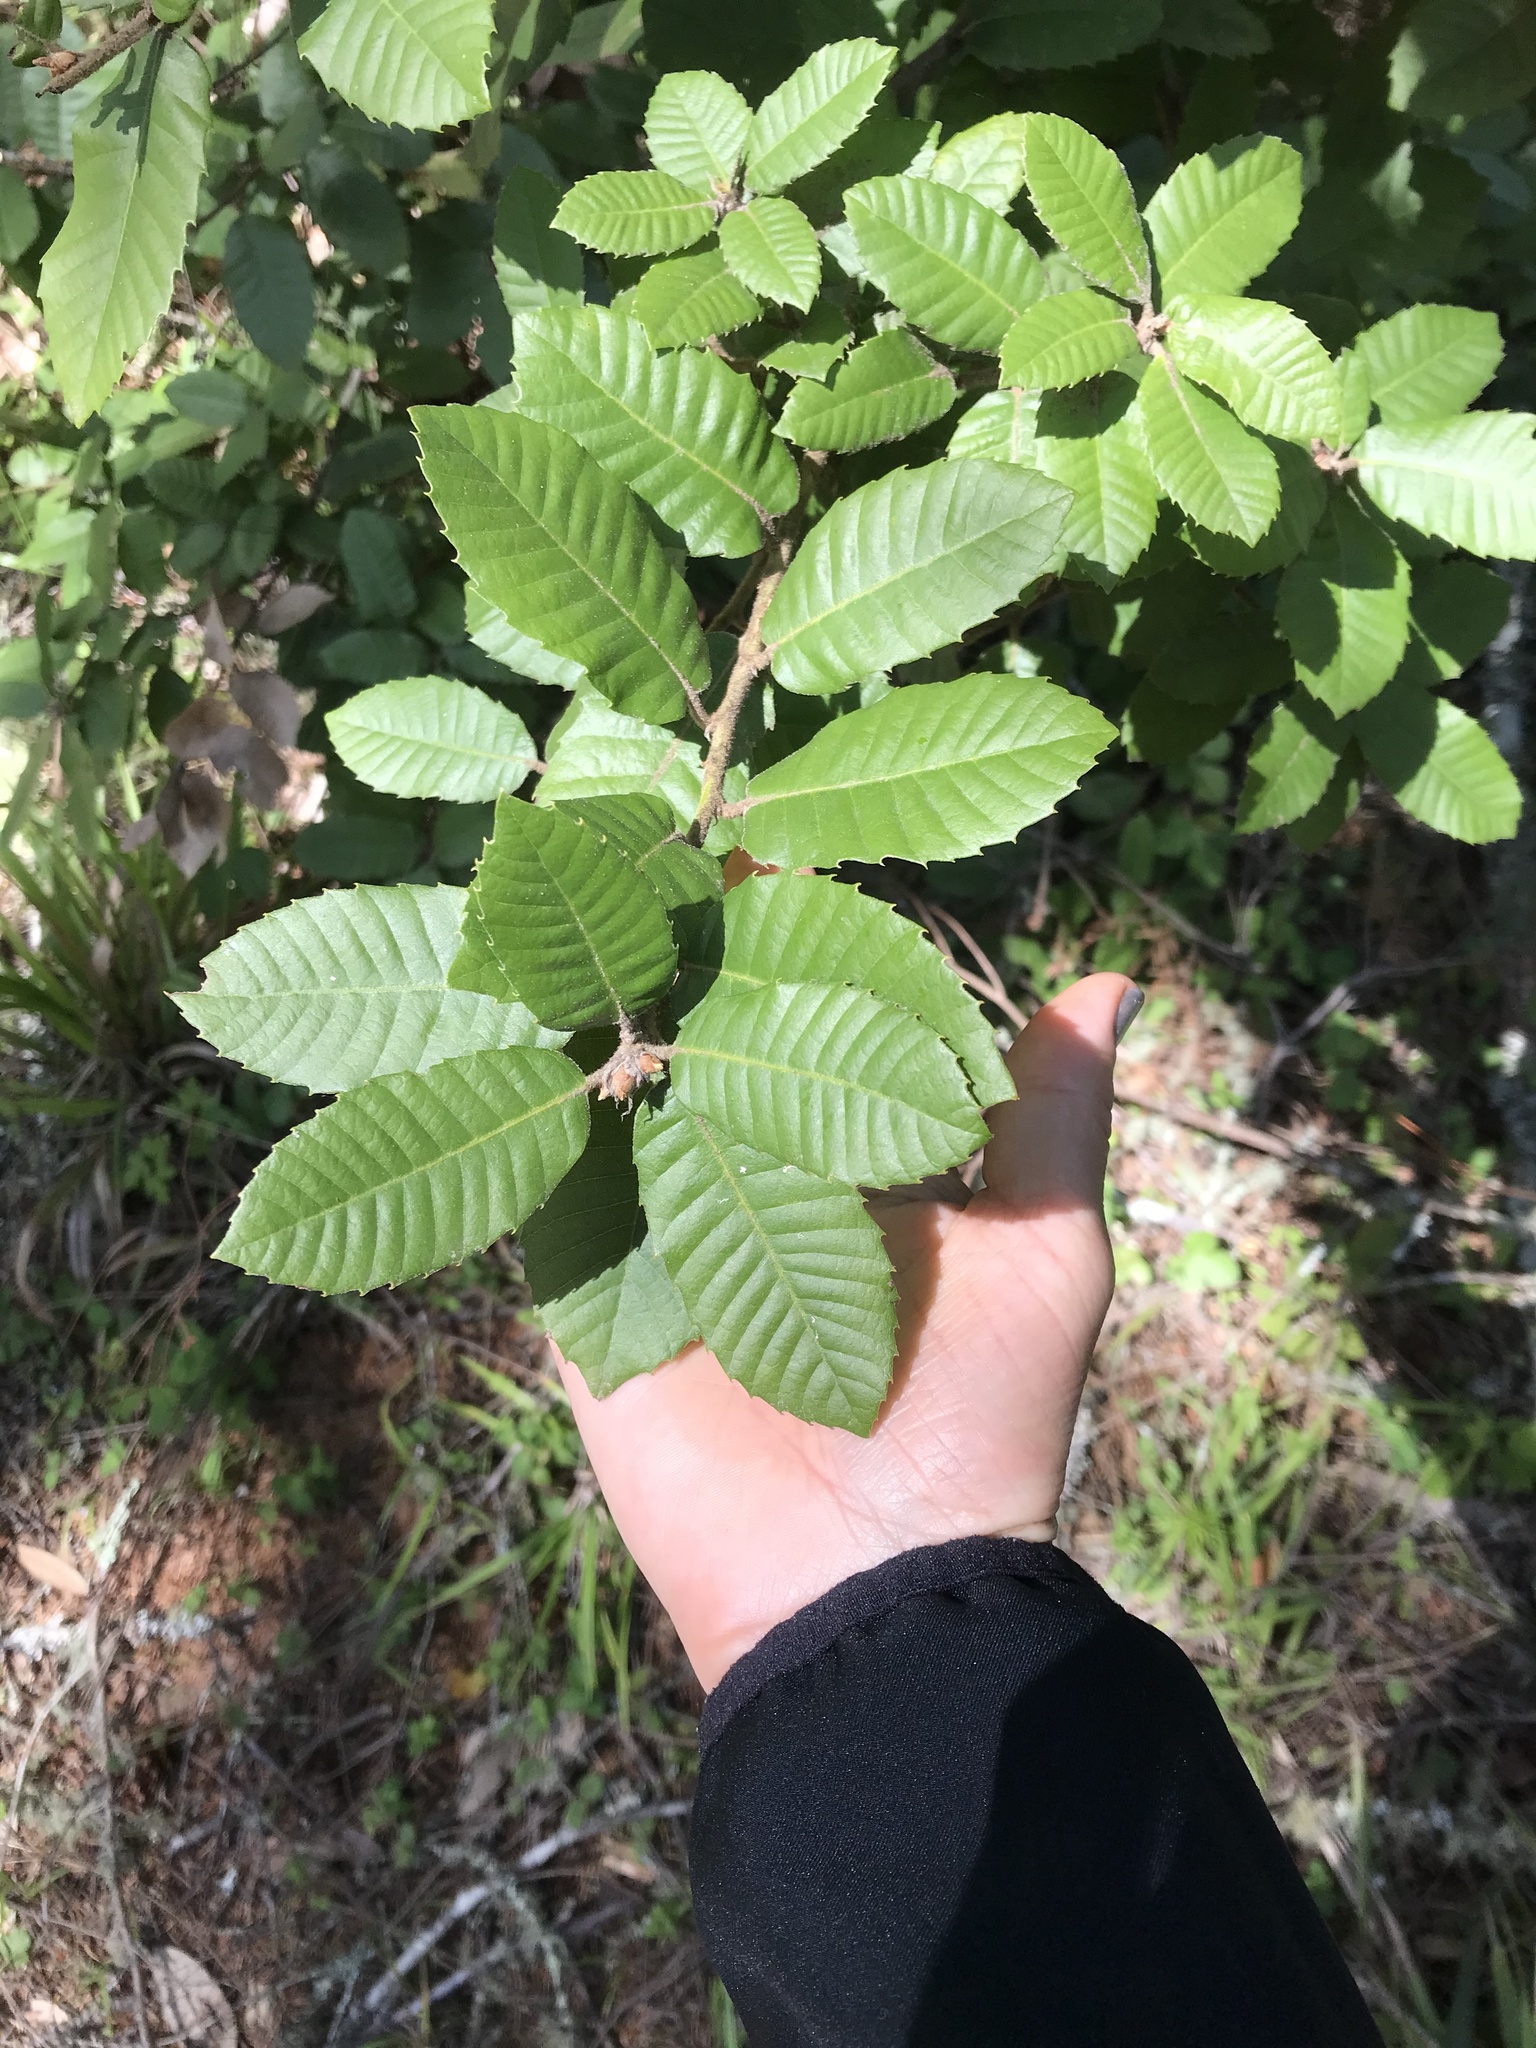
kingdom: Plantae
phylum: Tracheophyta
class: Magnoliopsida
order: Fagales
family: Fagaceae
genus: Notholithocarpus
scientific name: Notholithocarpus densiflorus
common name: Tan bark oak
